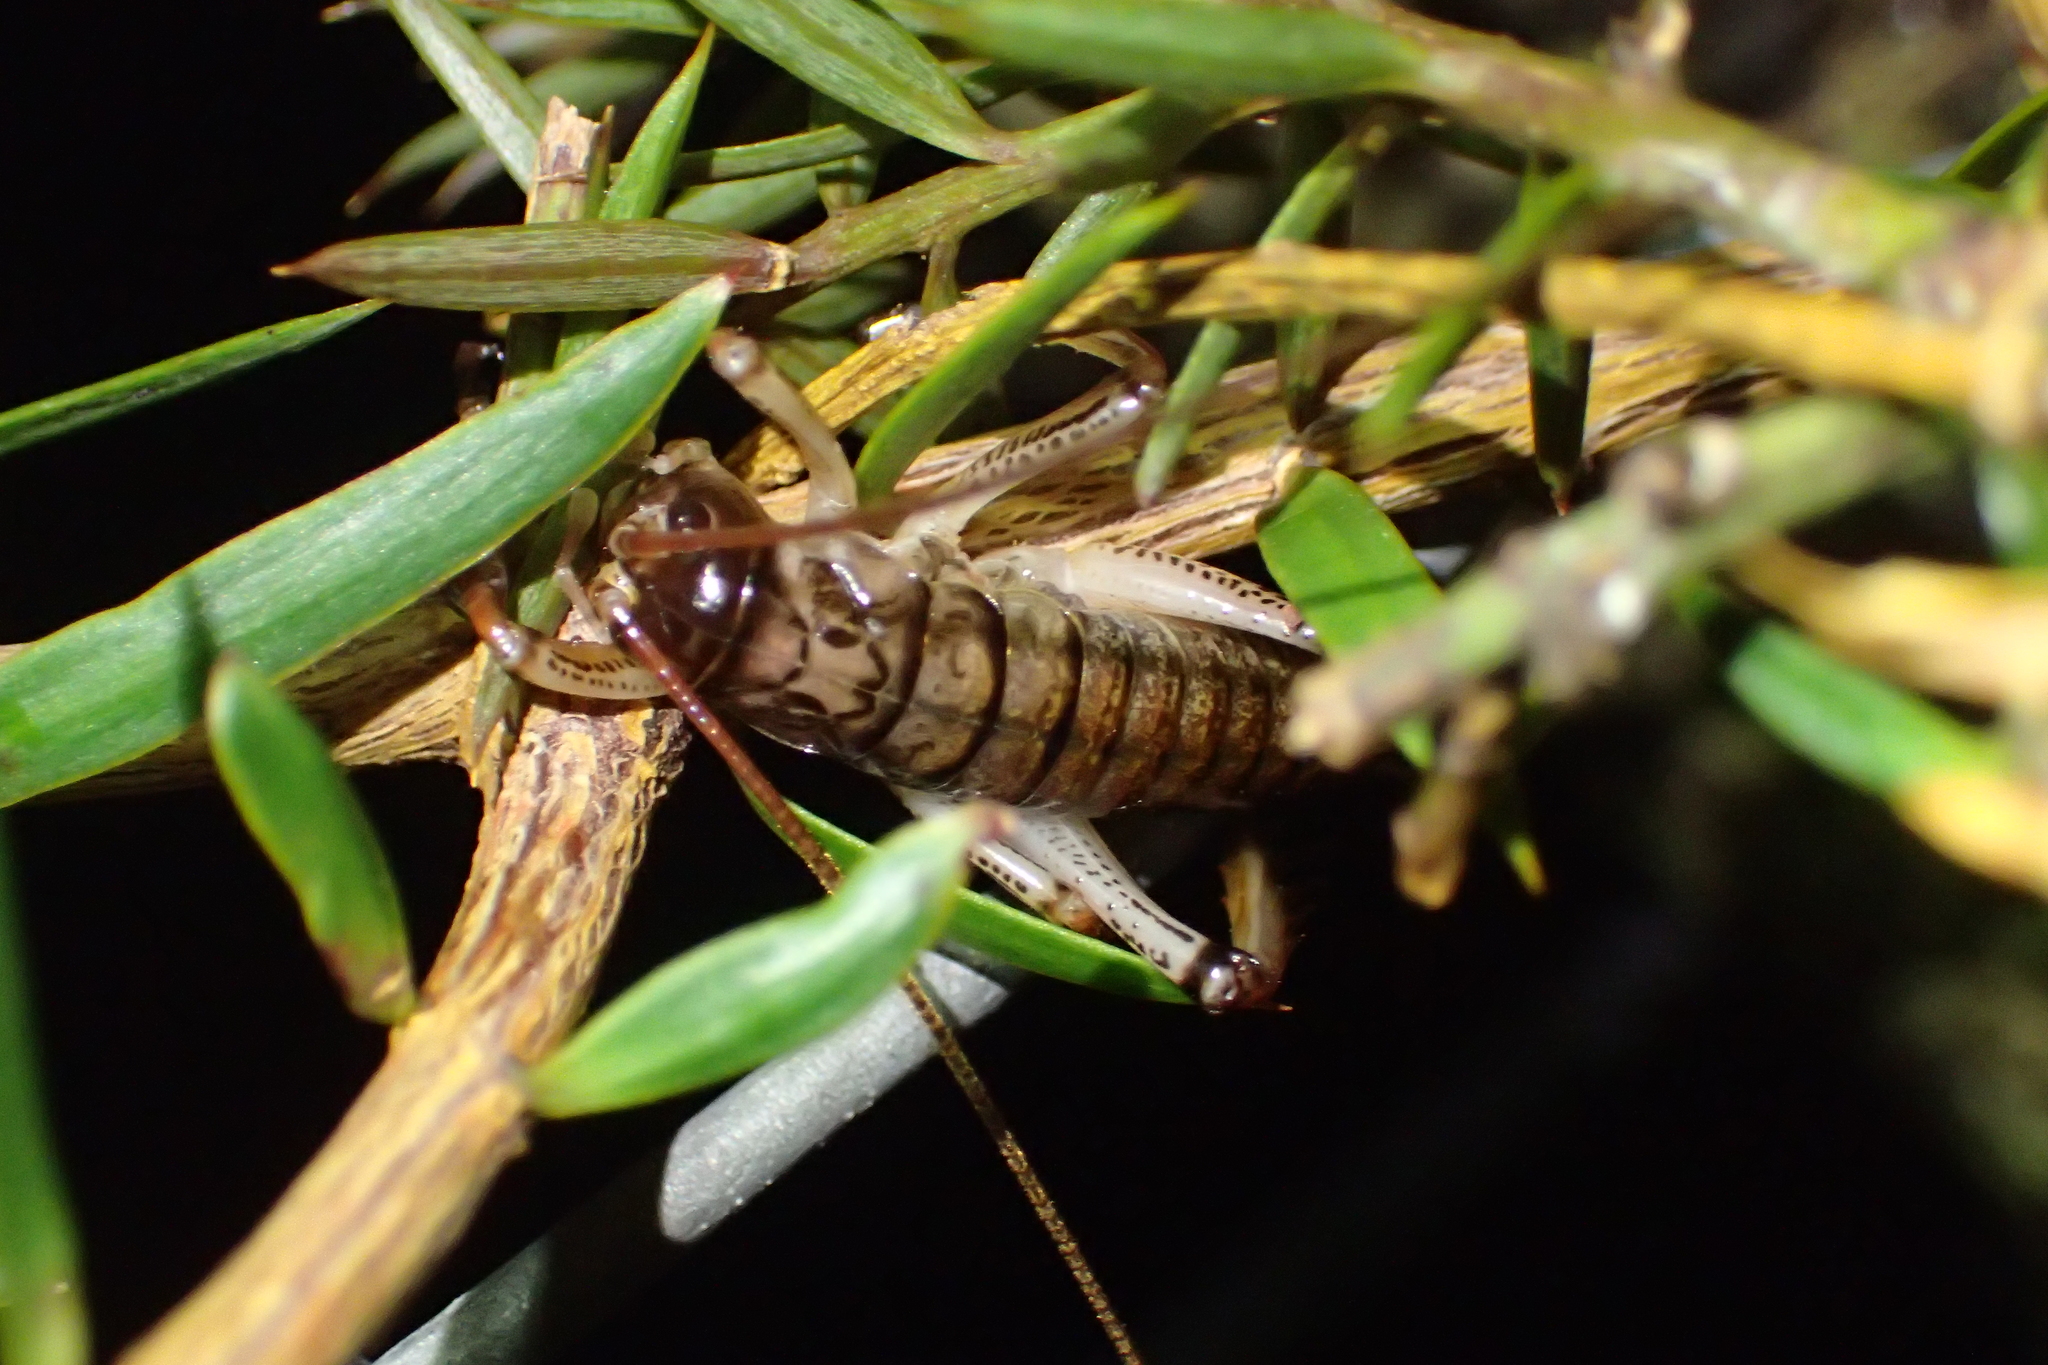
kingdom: Animalia
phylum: Arthropoda
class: Insecta
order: Orthoptera
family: Anostostomatidae
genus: Hemideina
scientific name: Hemideina thoracica
